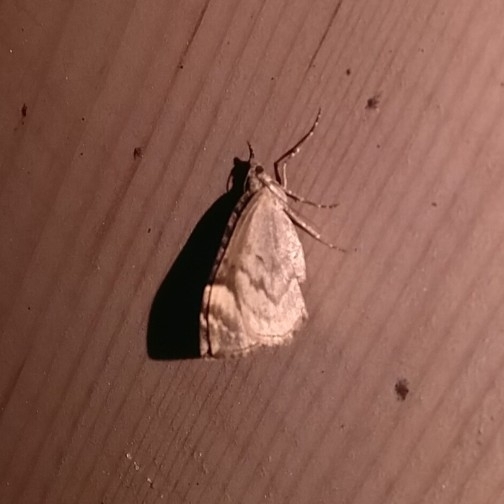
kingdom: Animalia
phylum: Arthropoda
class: Insecta
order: Lepidoptera
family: Geometridae
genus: Dysstroma
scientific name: Dysstroma citrata
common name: Dark marbled carpet
